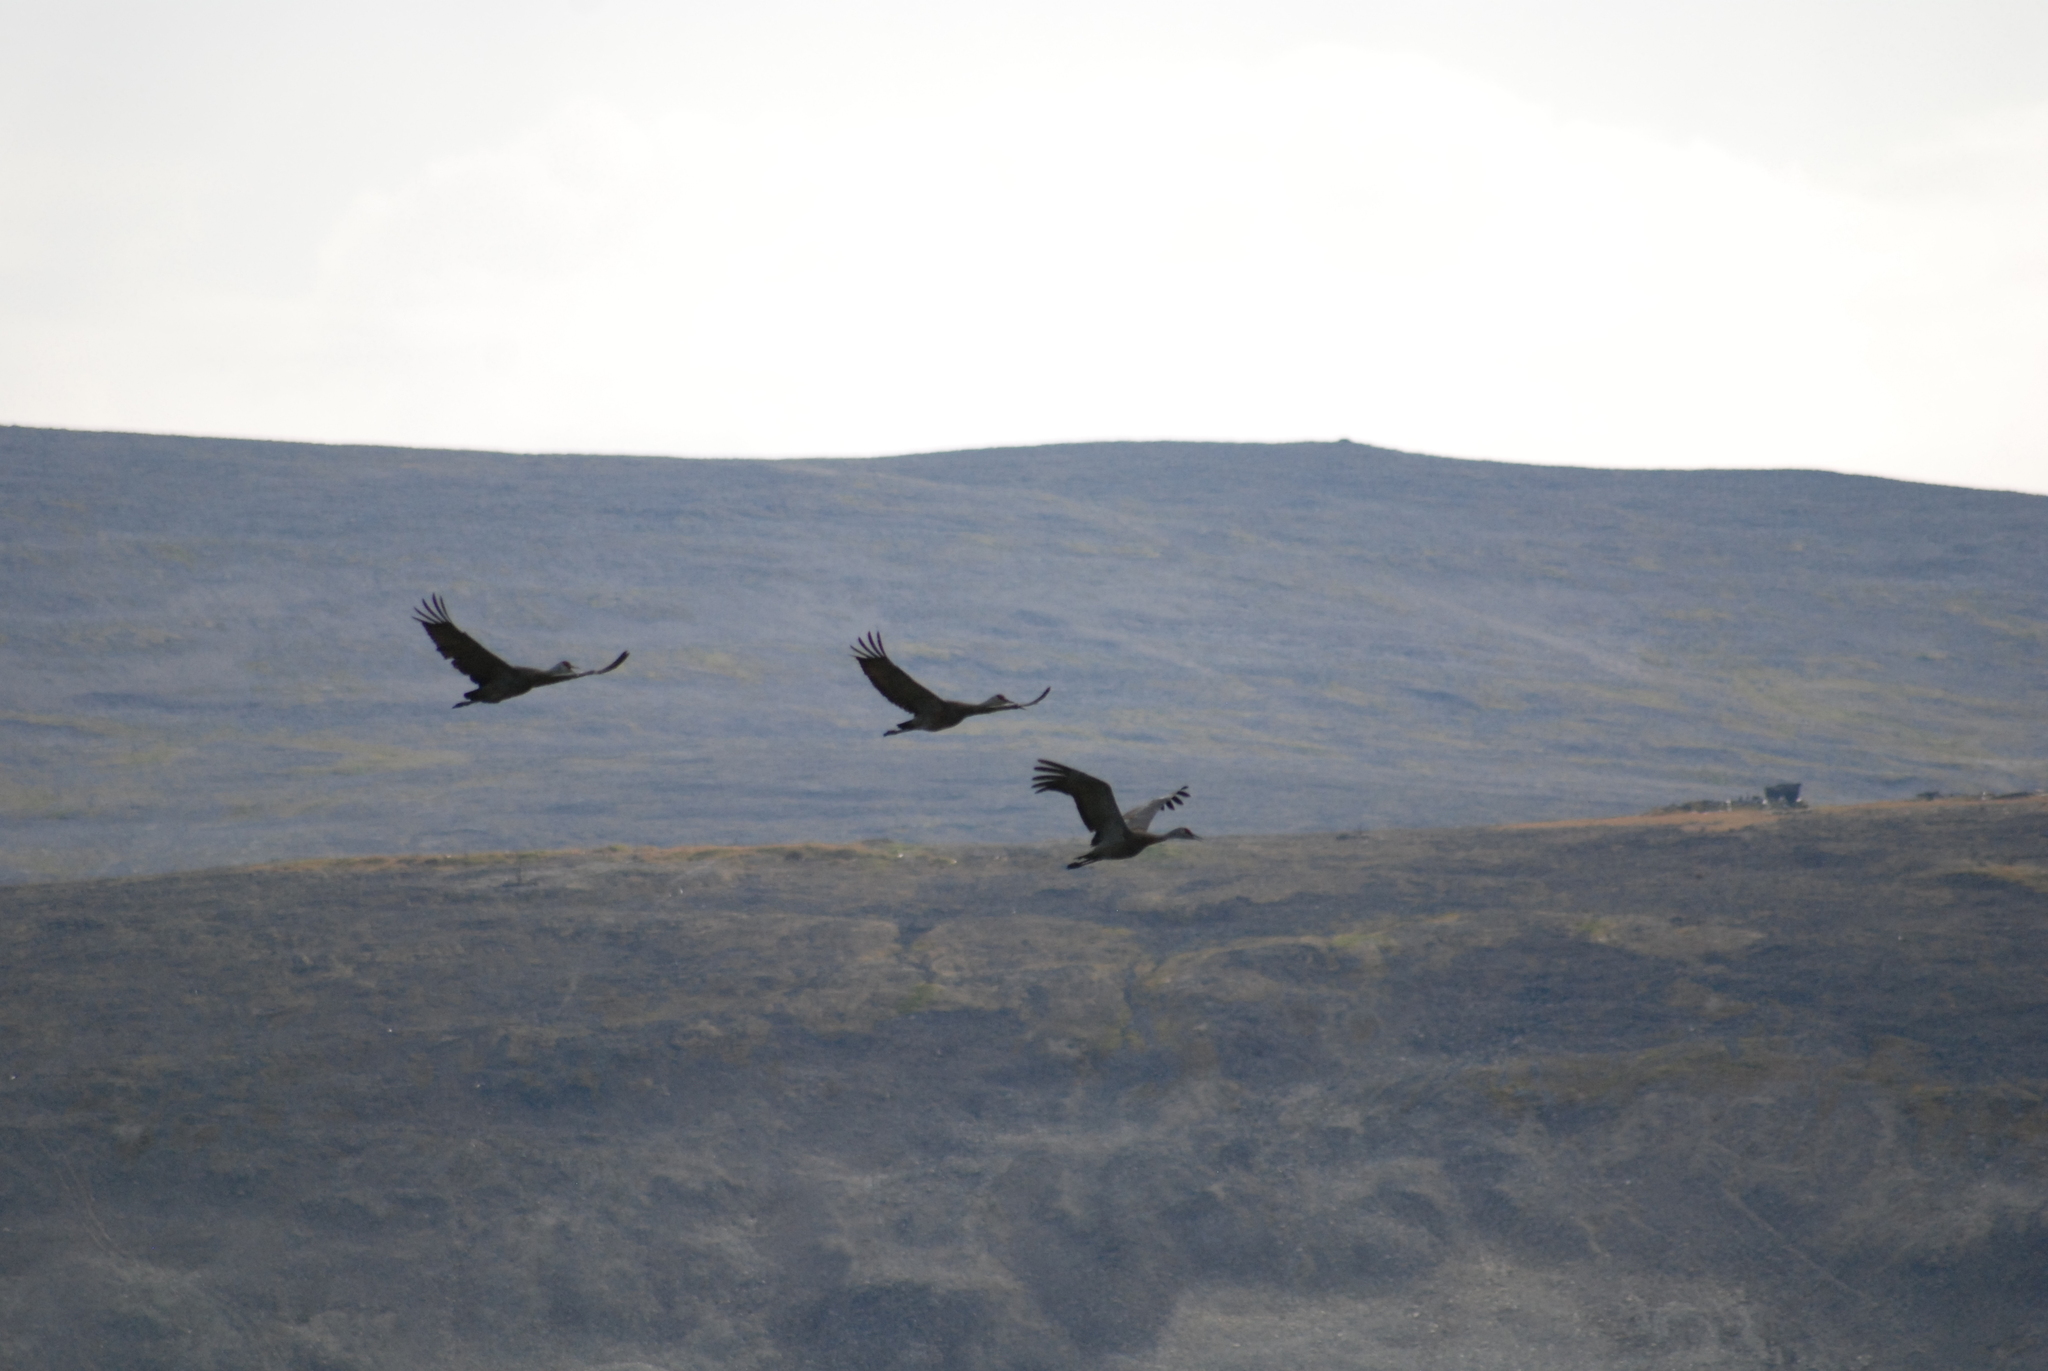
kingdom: Animalia
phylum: Chordata
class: Aves
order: Gruiformes
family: Gruidae
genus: Grus
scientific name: Grus canadensis
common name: Sandhill crane
